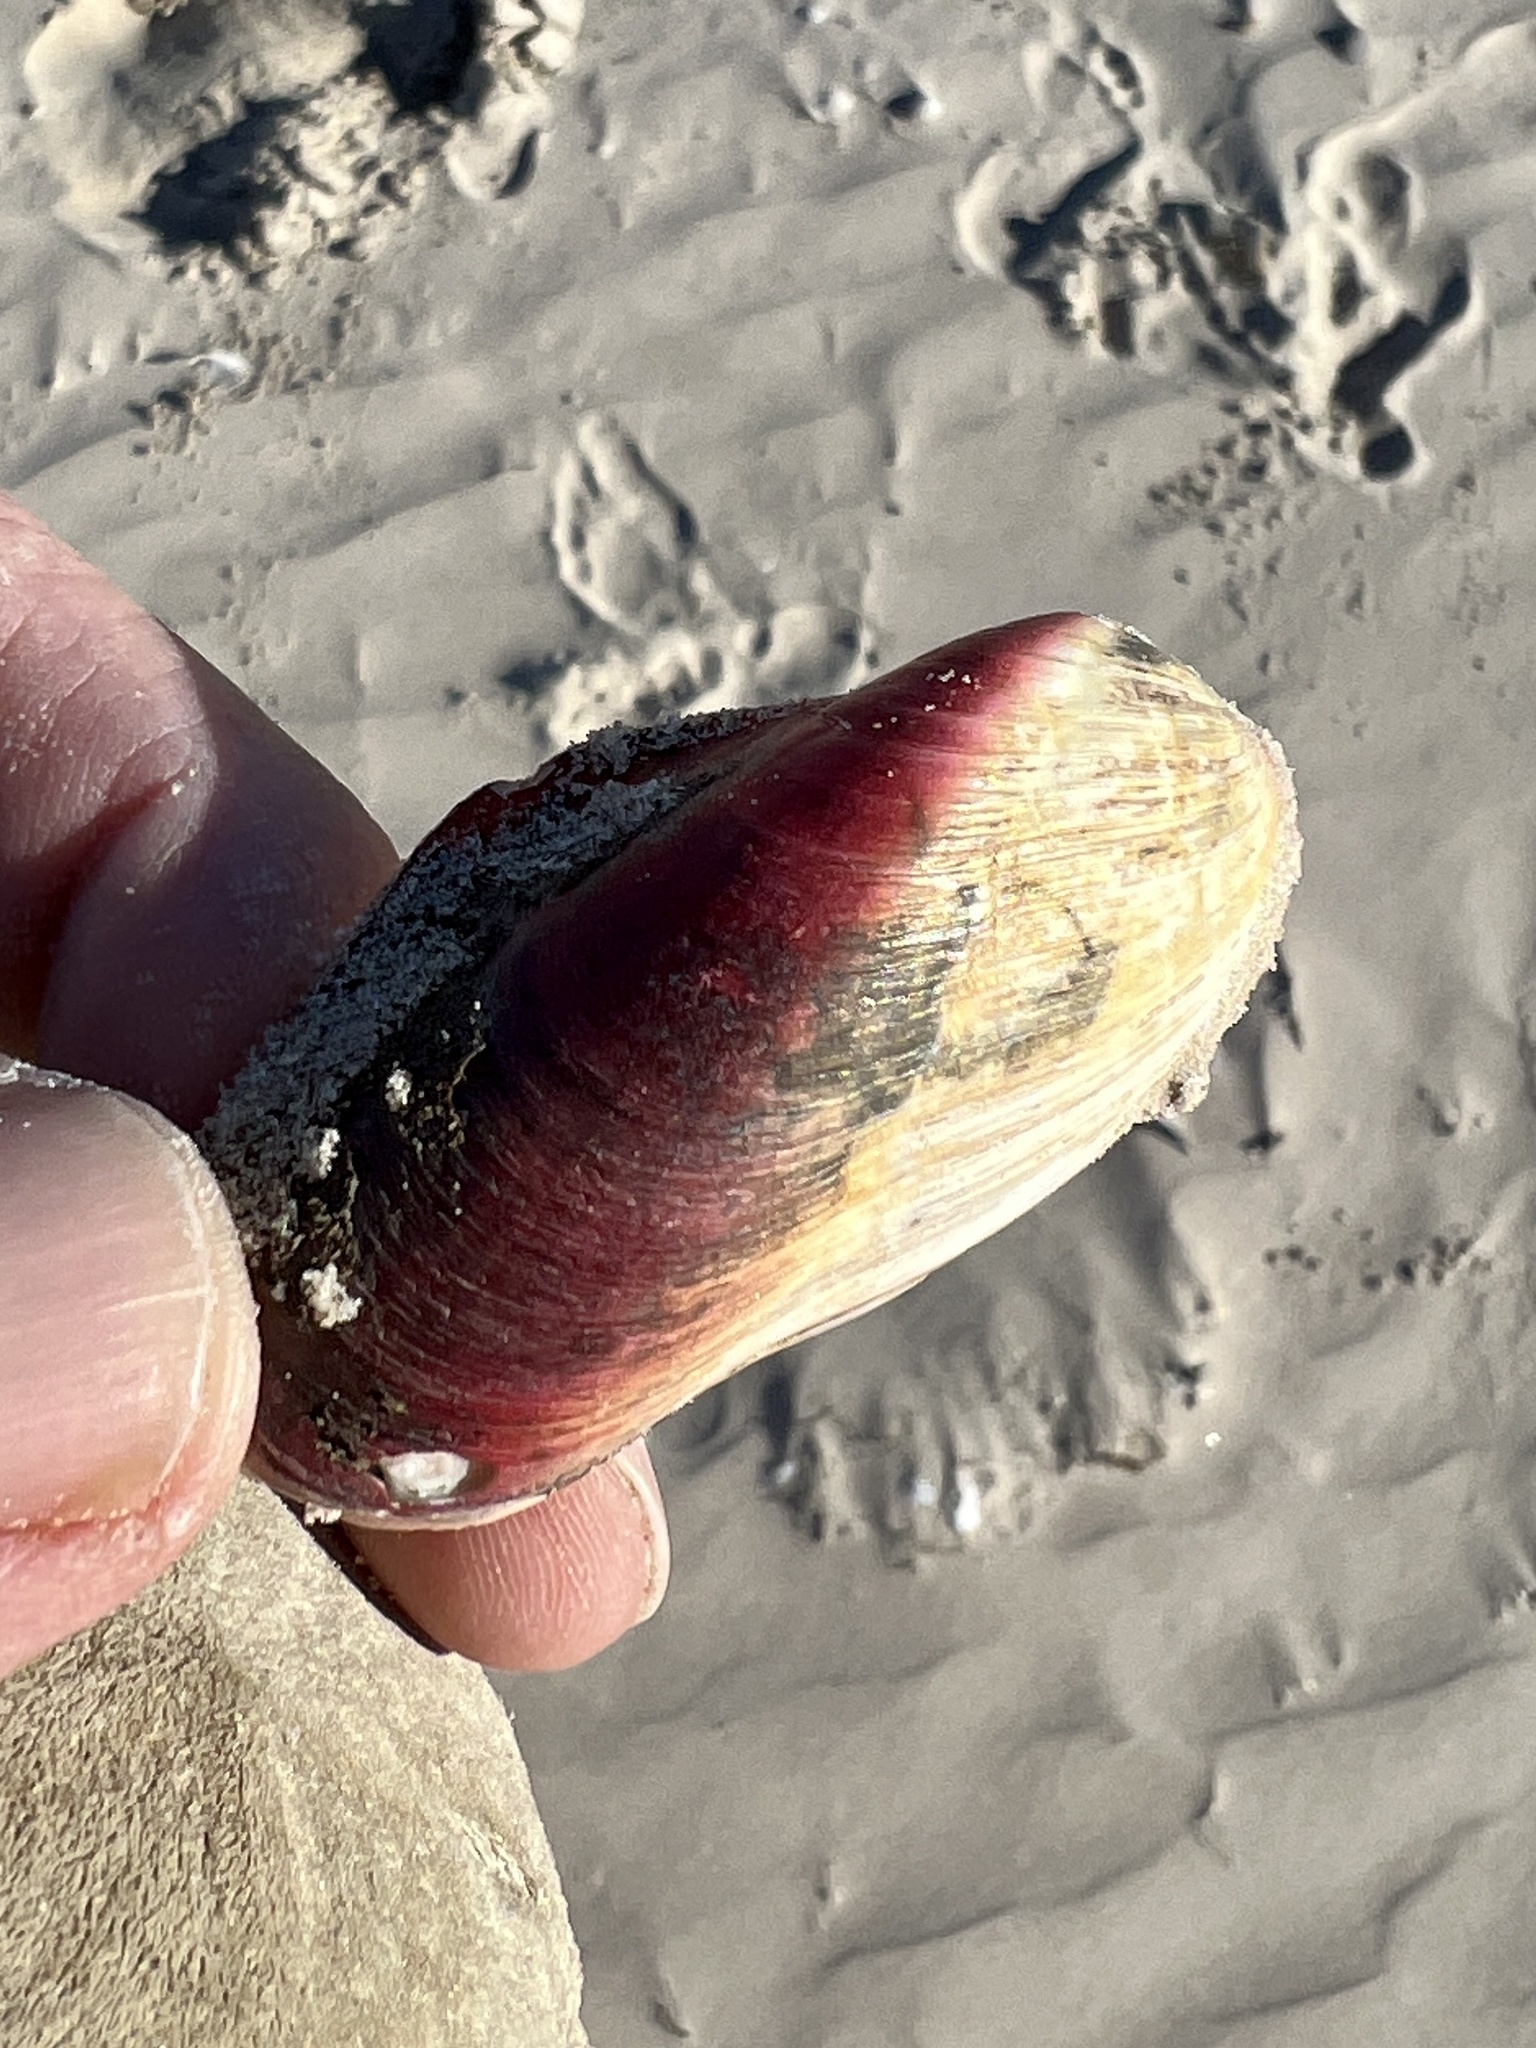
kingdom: Animalia
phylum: Mollusca
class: Bivalvia
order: Mytilida
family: Mytilidae
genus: Modiolus
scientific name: Modiolus americanus
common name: Tulip mussel
